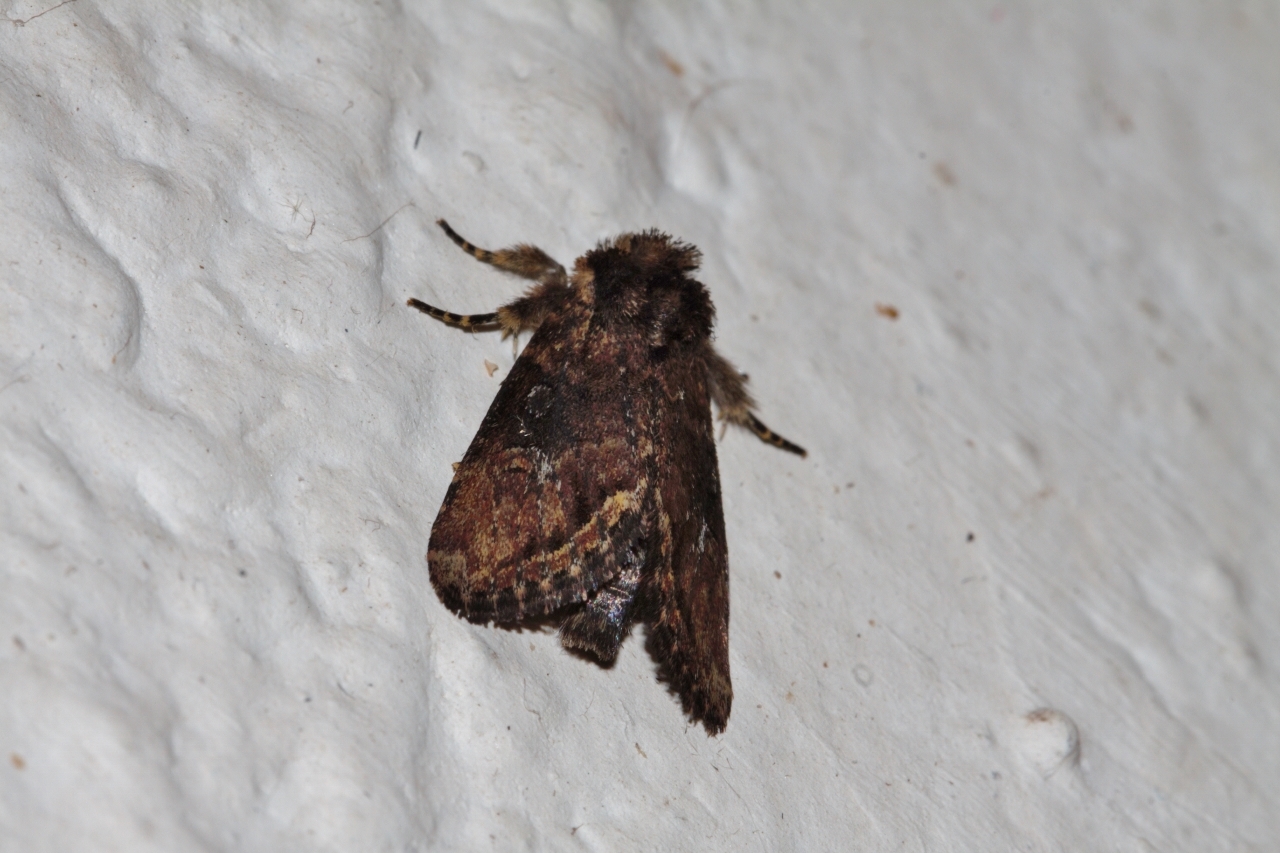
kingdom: Animalia
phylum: Arthropoda
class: Insecta
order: Lepidoptera
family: Noctuidae
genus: Busseola
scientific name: Busseola fusca
